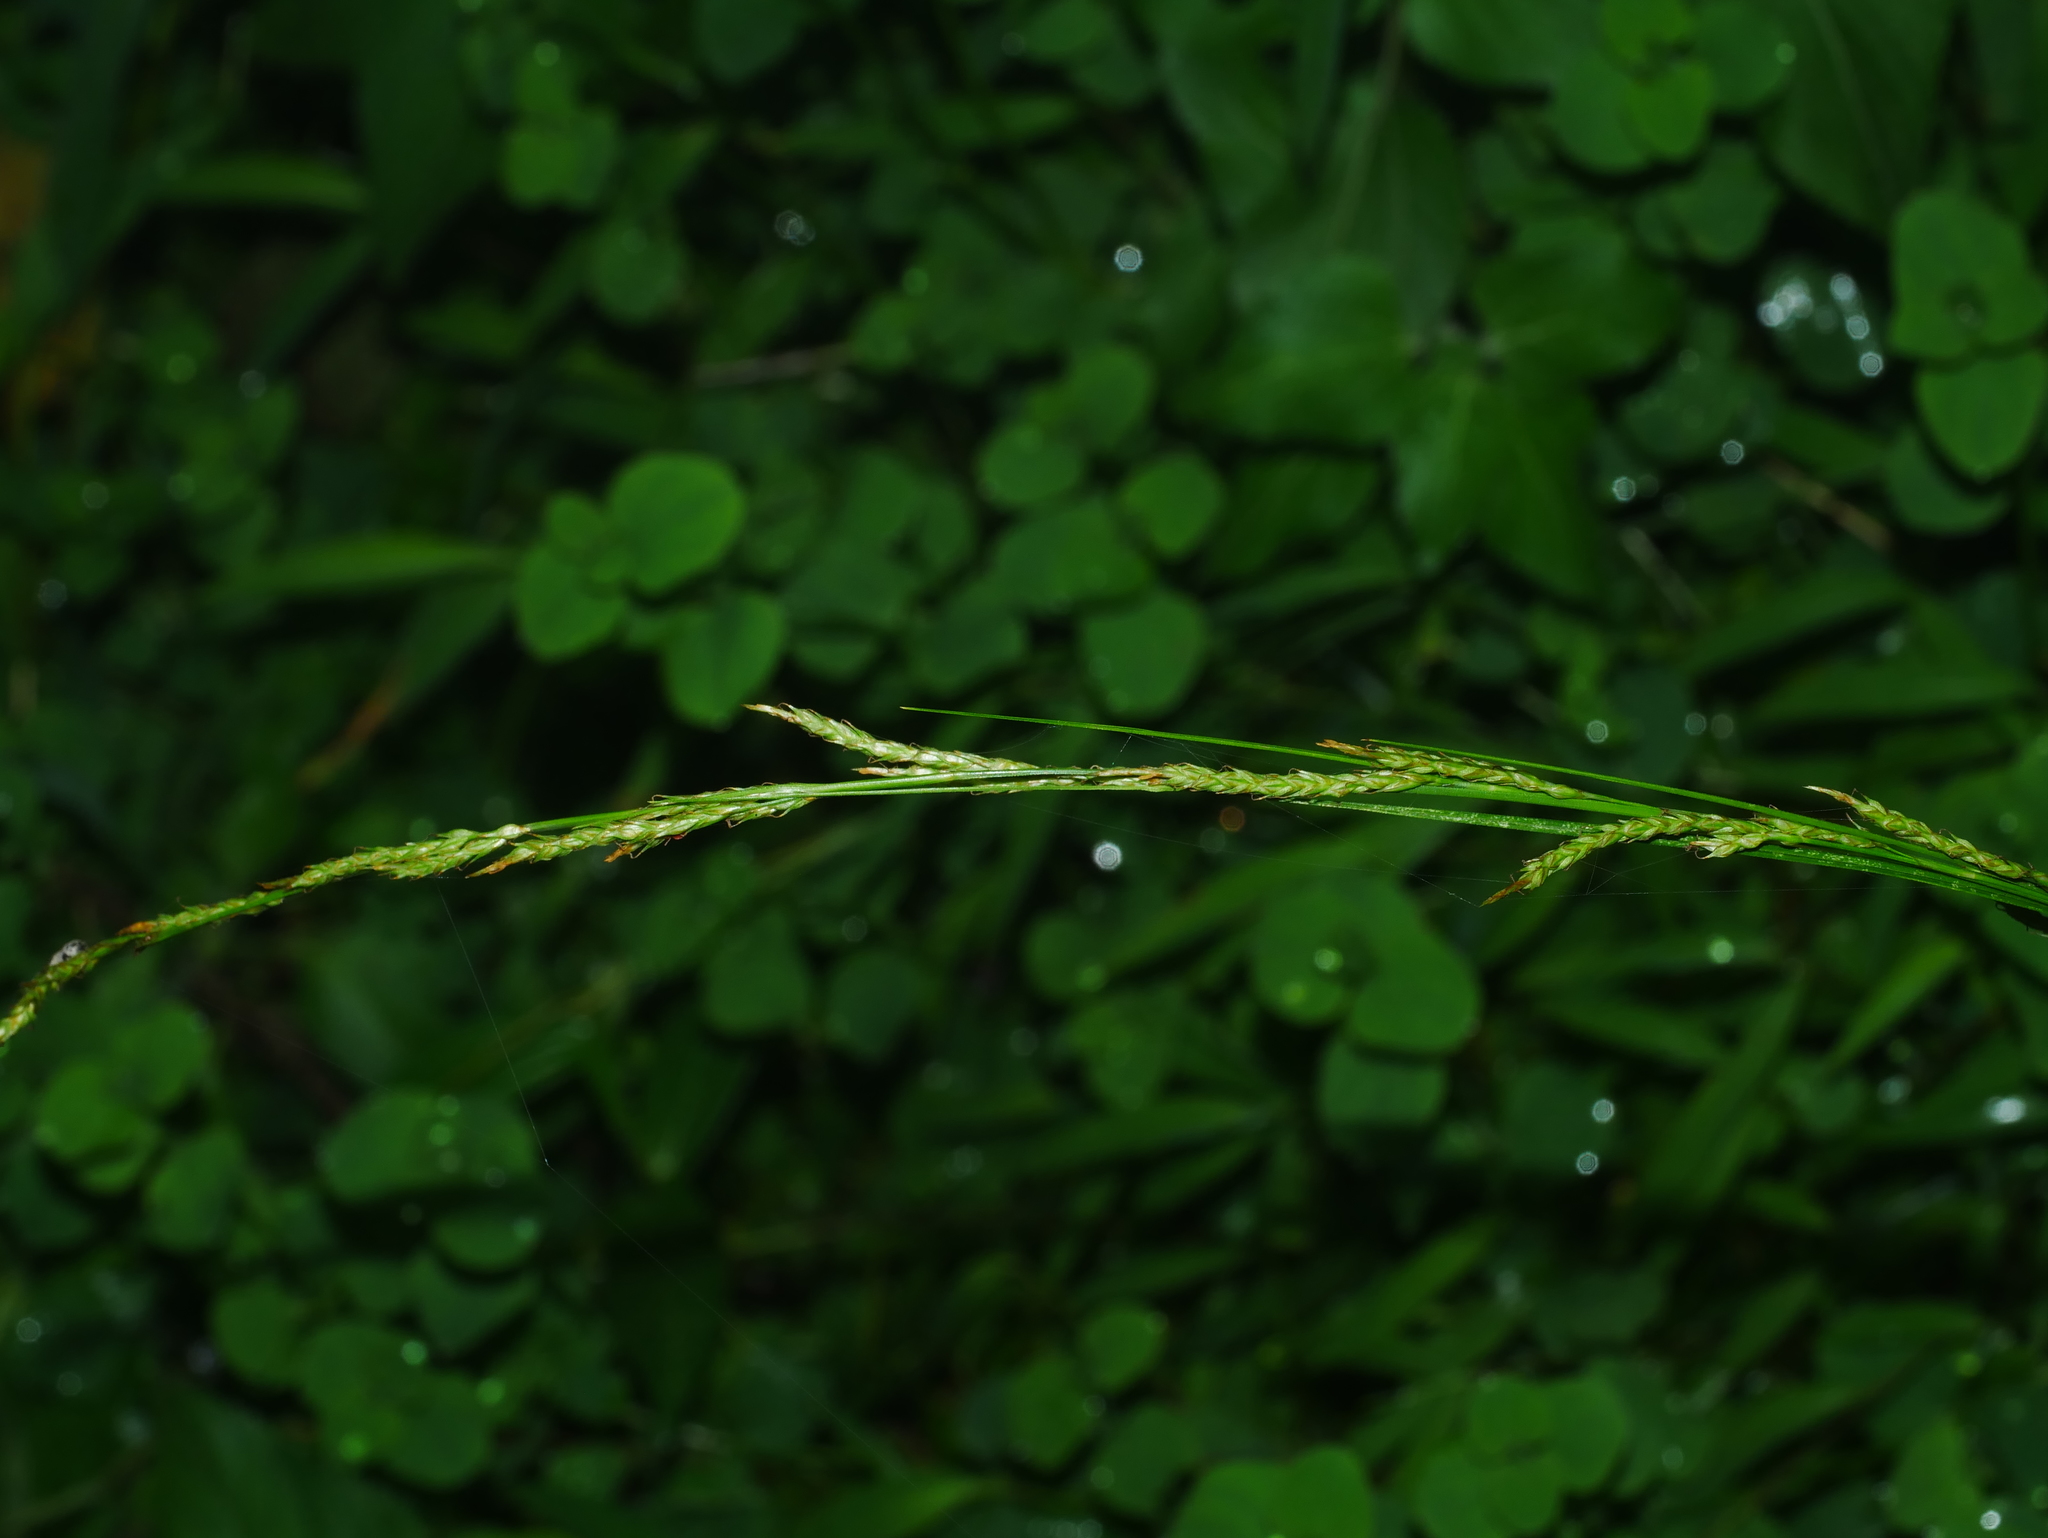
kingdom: Plantae
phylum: Tracheophyta
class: Liliopsida
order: Poales
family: Cyperaceae
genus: Carex
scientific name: Carex brunnea
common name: Greater brown sedge
